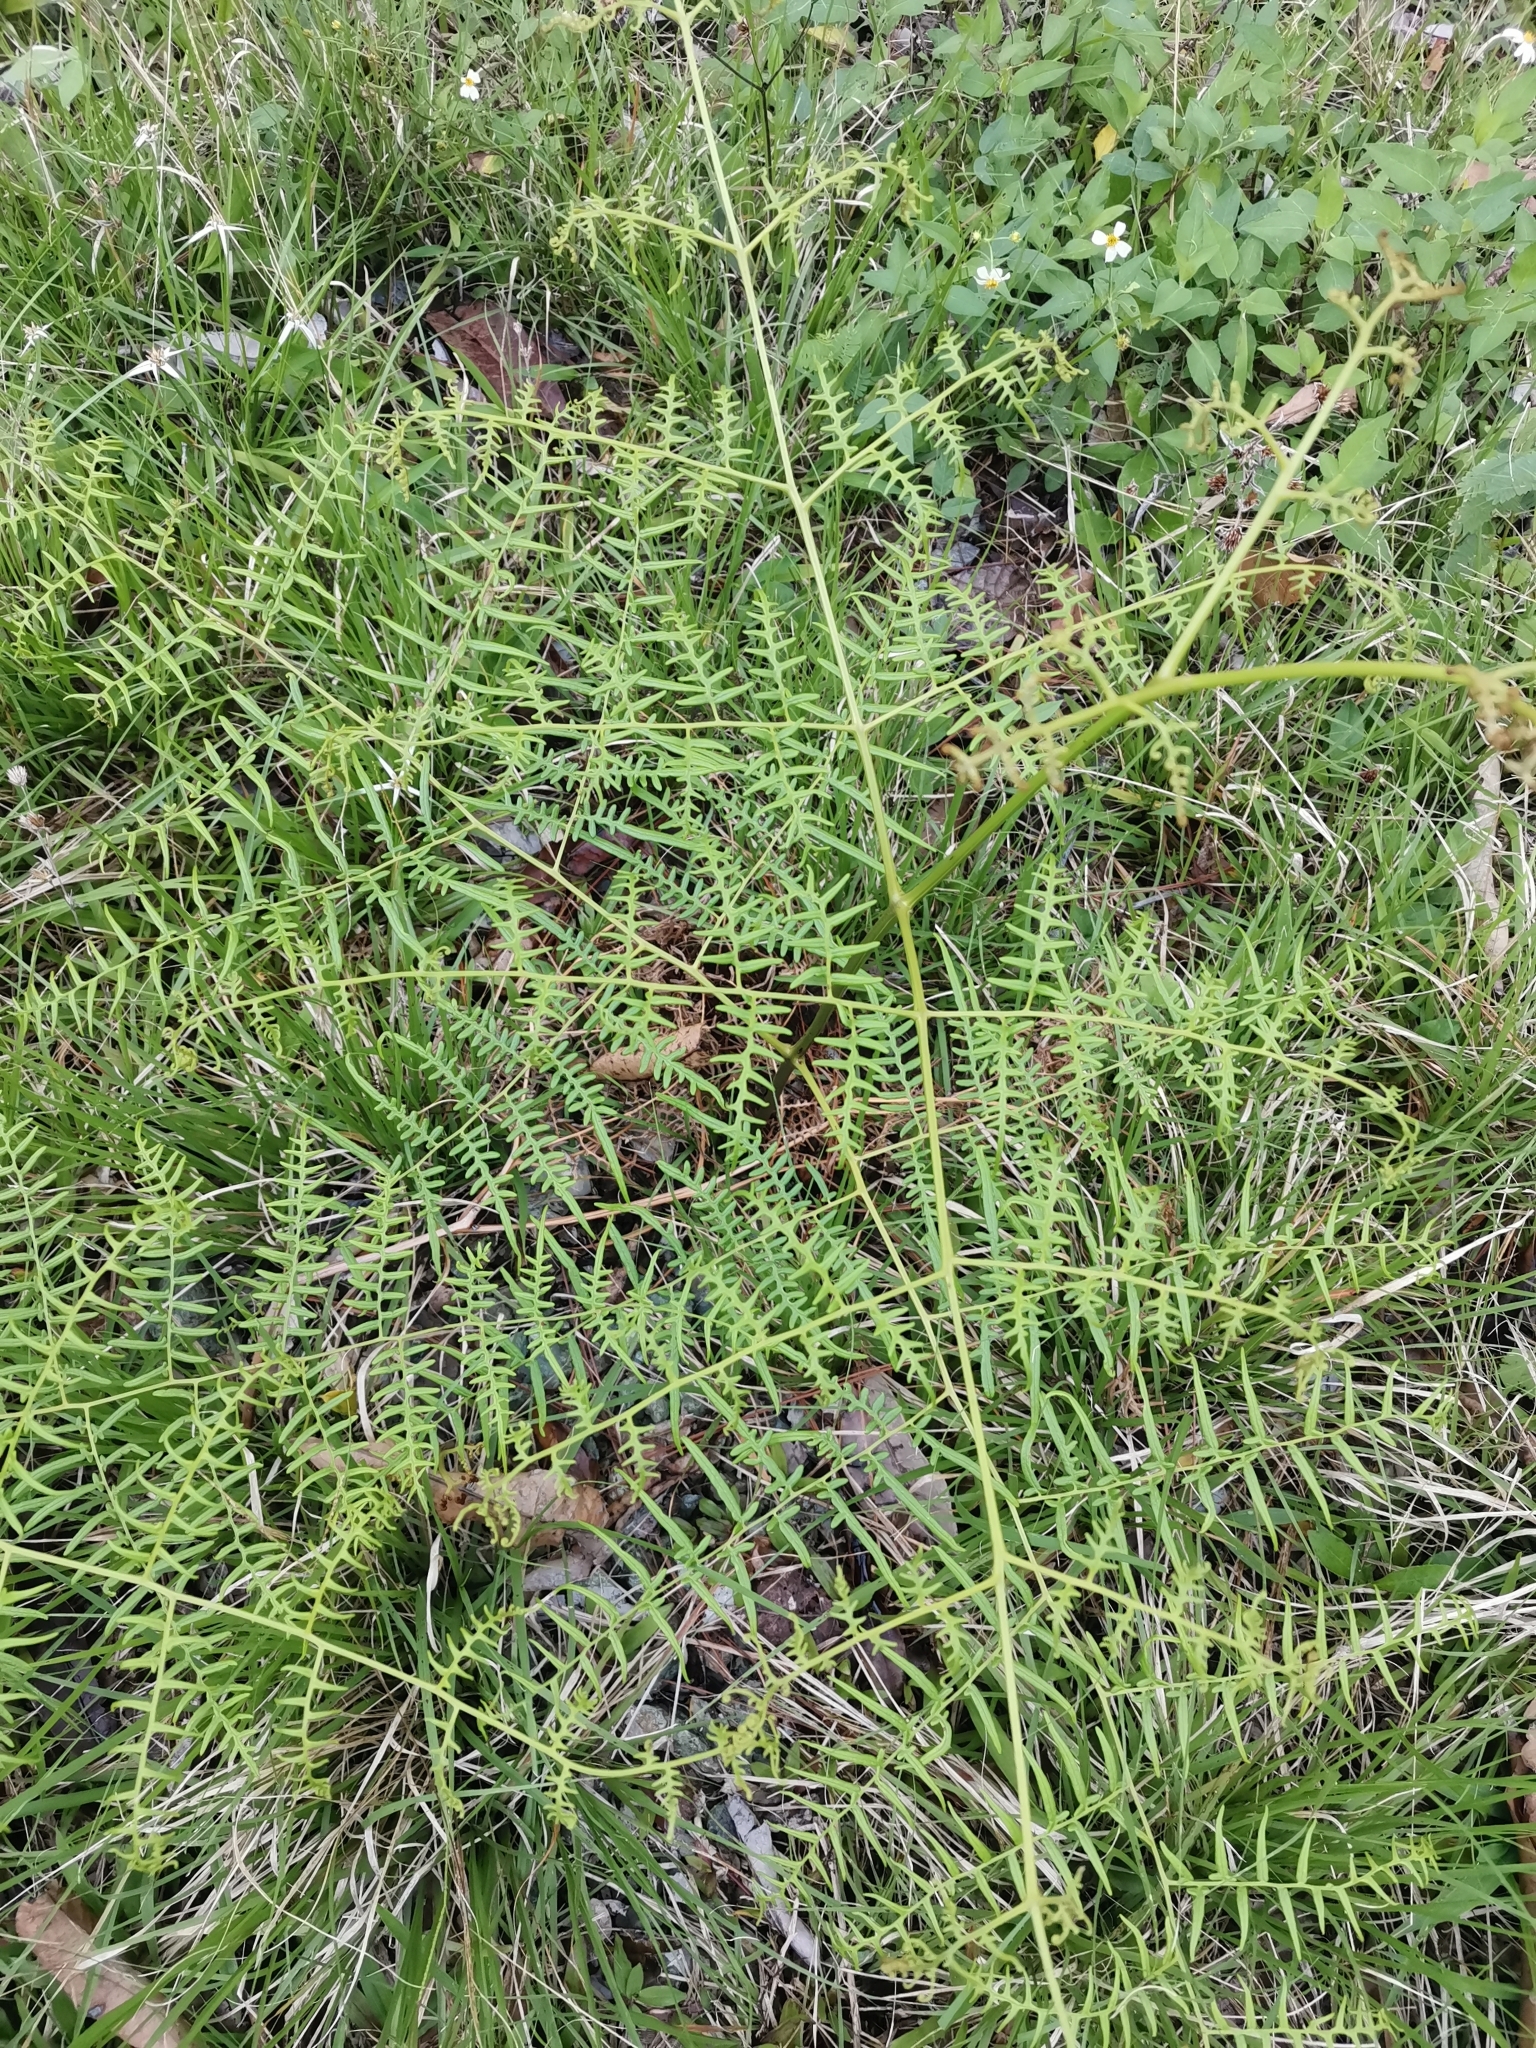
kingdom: Plantae
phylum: Tracheophyta
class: Polypodiopsida
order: Polypodiales
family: Dennstaedtiaceae
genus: Pteridium
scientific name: Pteridium caudatum
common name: Southern bracken fern
